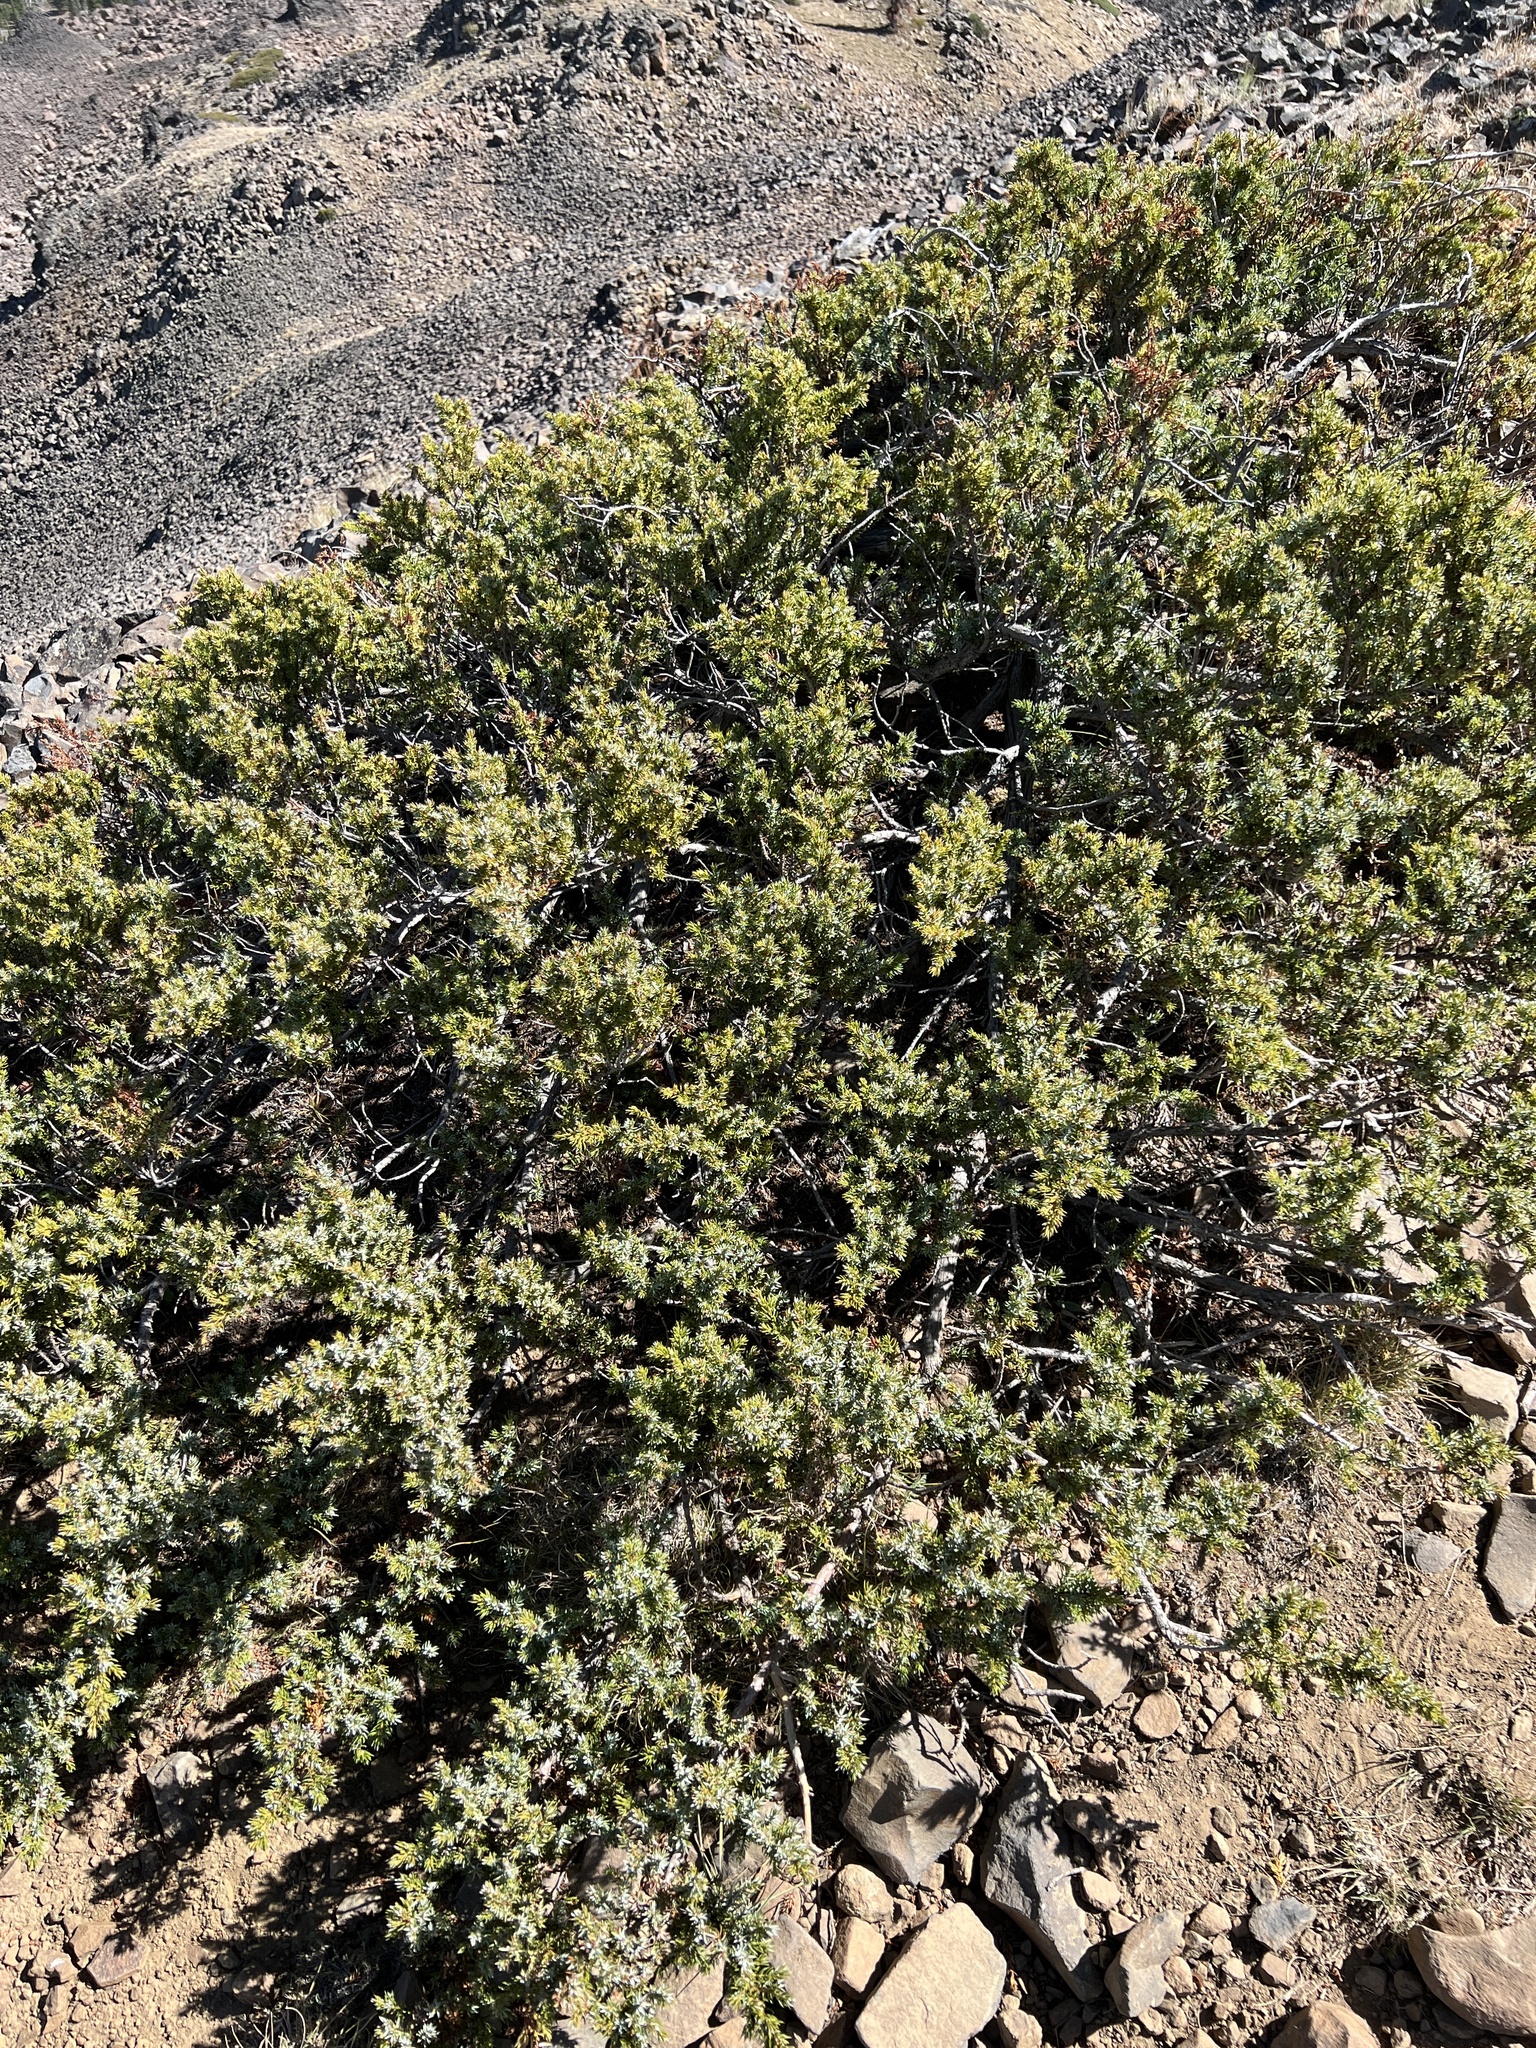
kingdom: Plantae
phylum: Tracheophyta
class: Pinopsida
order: Pinales
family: Cupressaceae
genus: Juniperus
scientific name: Juniperus communis
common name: Common juniper
